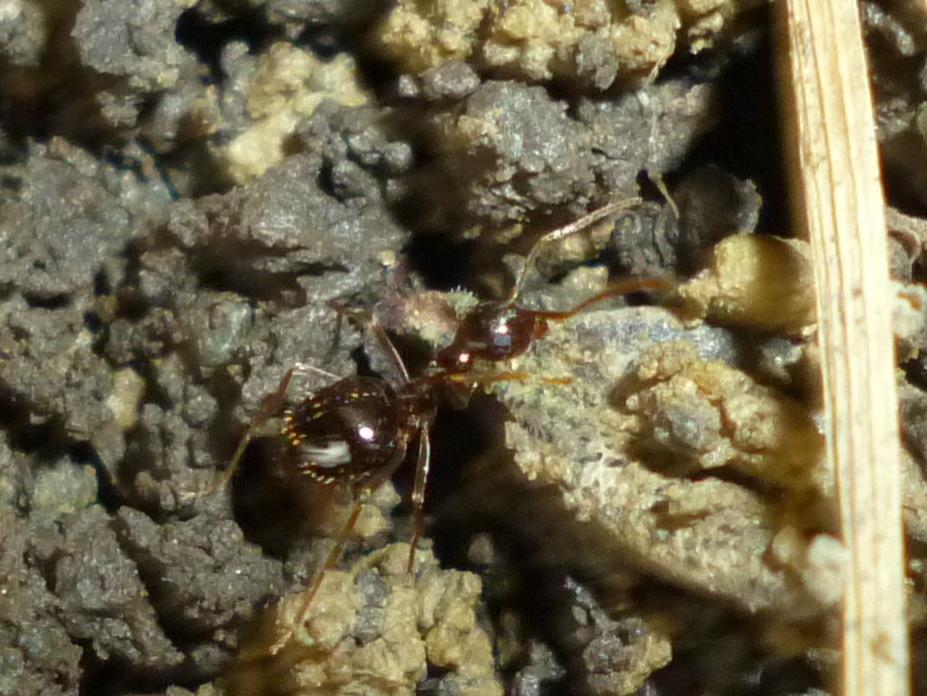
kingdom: Animalia
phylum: Arthropoda
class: Insecta
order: Hymenoptera
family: Formicidae
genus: Prenolepis
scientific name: Prenolepis imparis
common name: Small honey ant
